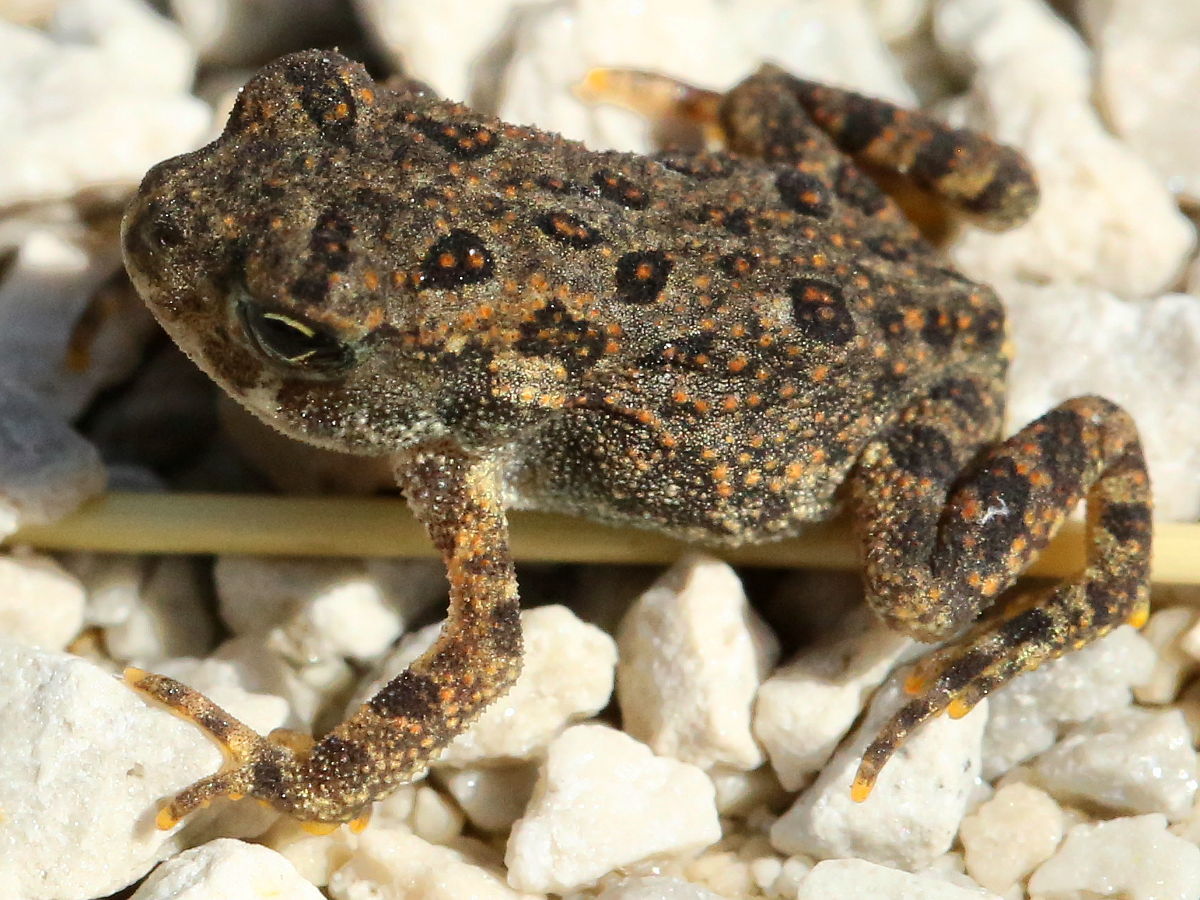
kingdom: Animalia
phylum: Chordata
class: Amphibia
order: Anura
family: Bufonidae
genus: Anaxyrus
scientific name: Anaxyrus americanus
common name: American toad
